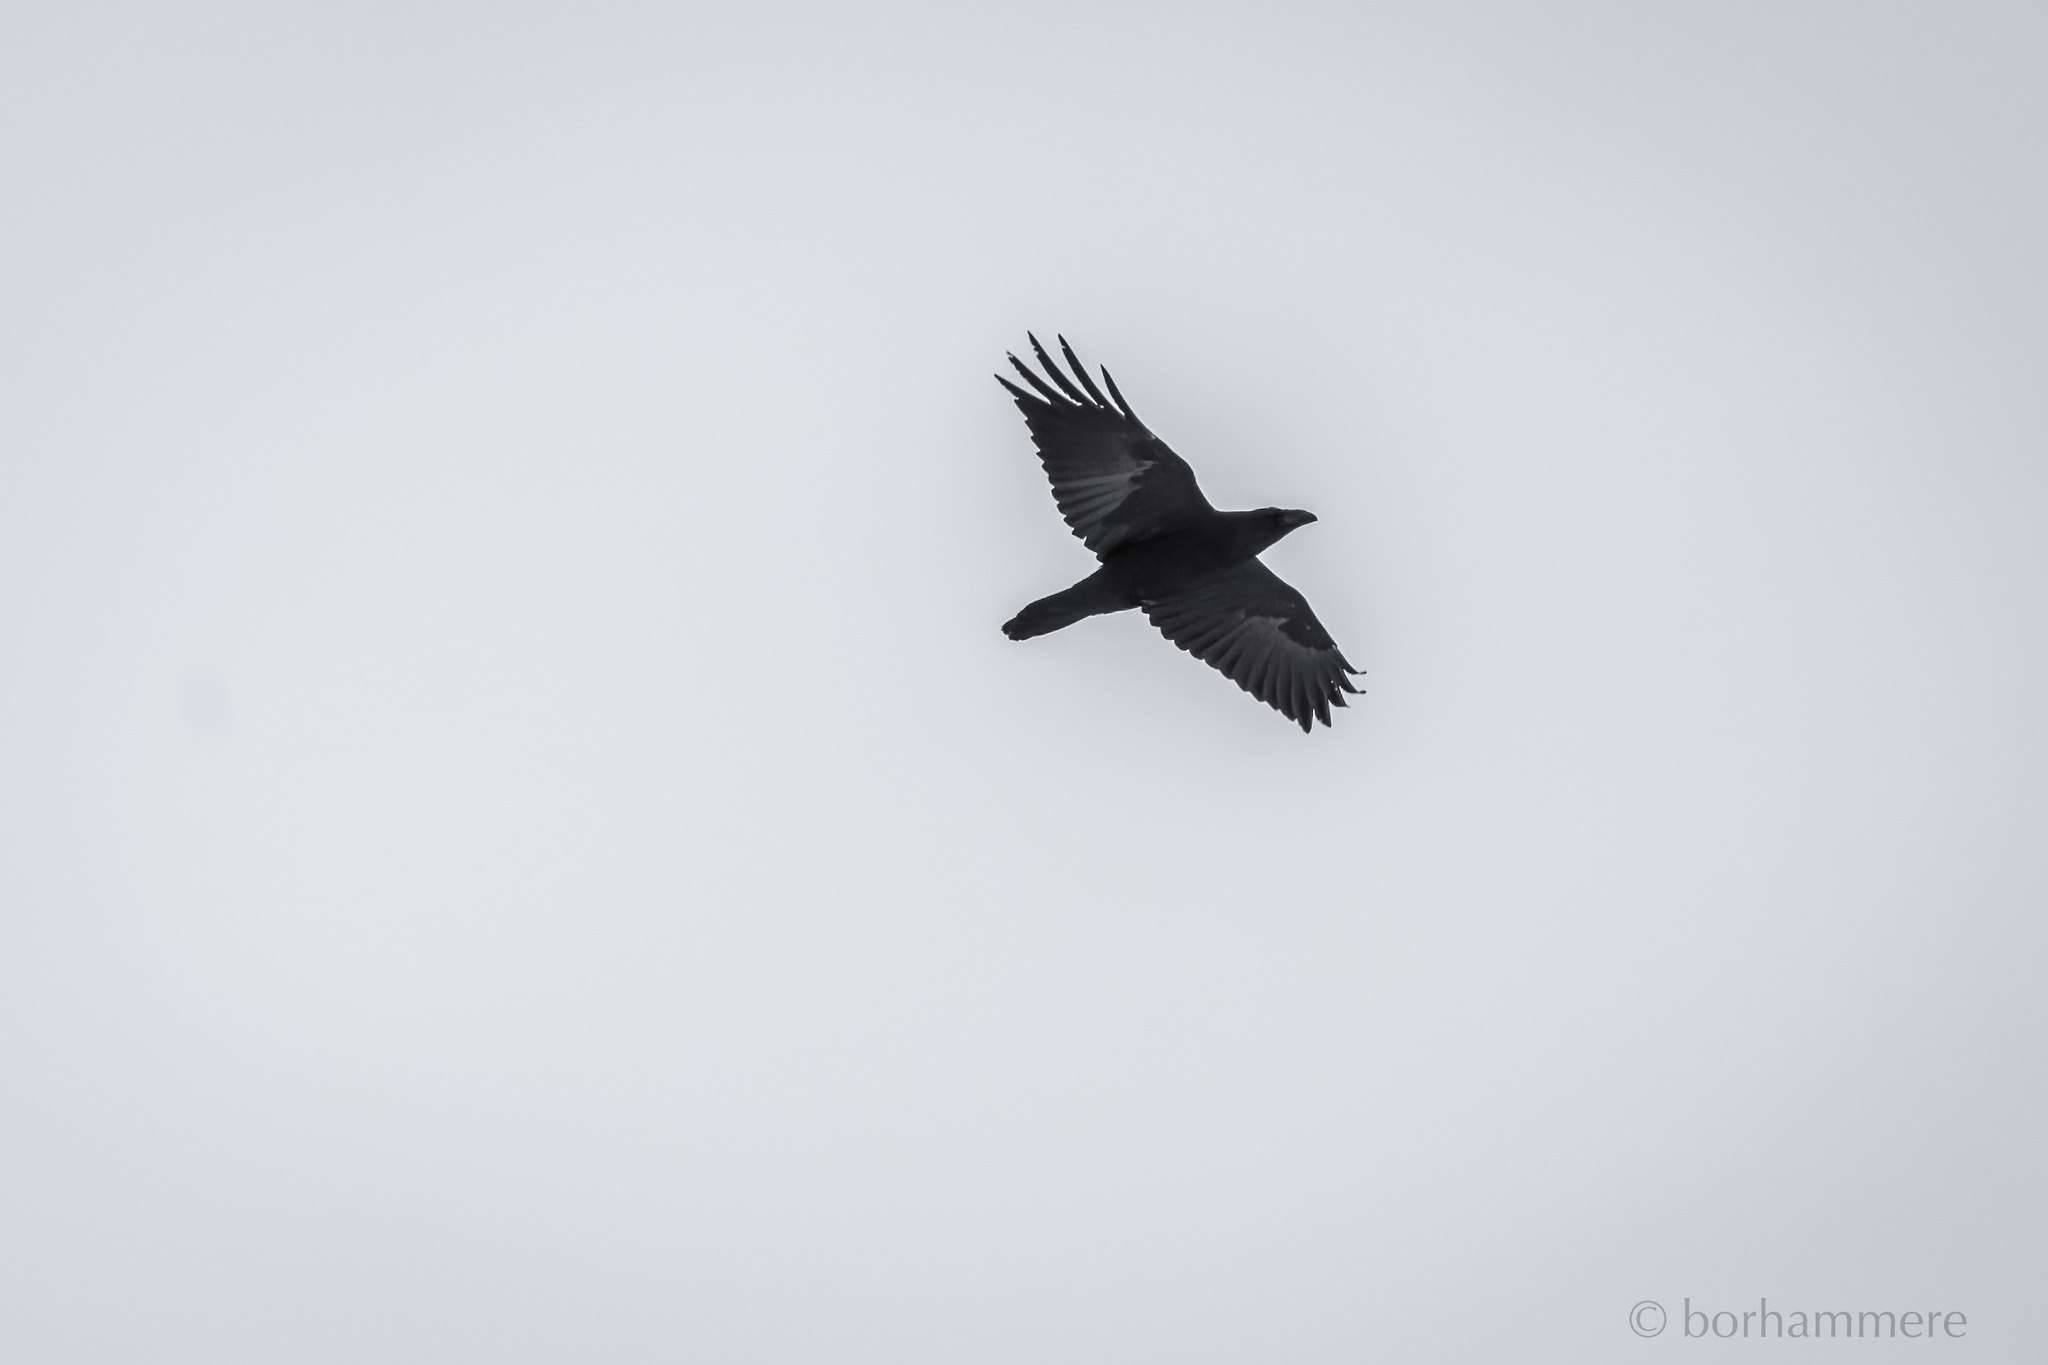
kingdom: Animalia
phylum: Chordata
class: Aves
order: Passeriformes
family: Corvidae
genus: Corvus
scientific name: Corvus corax
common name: Common raven
